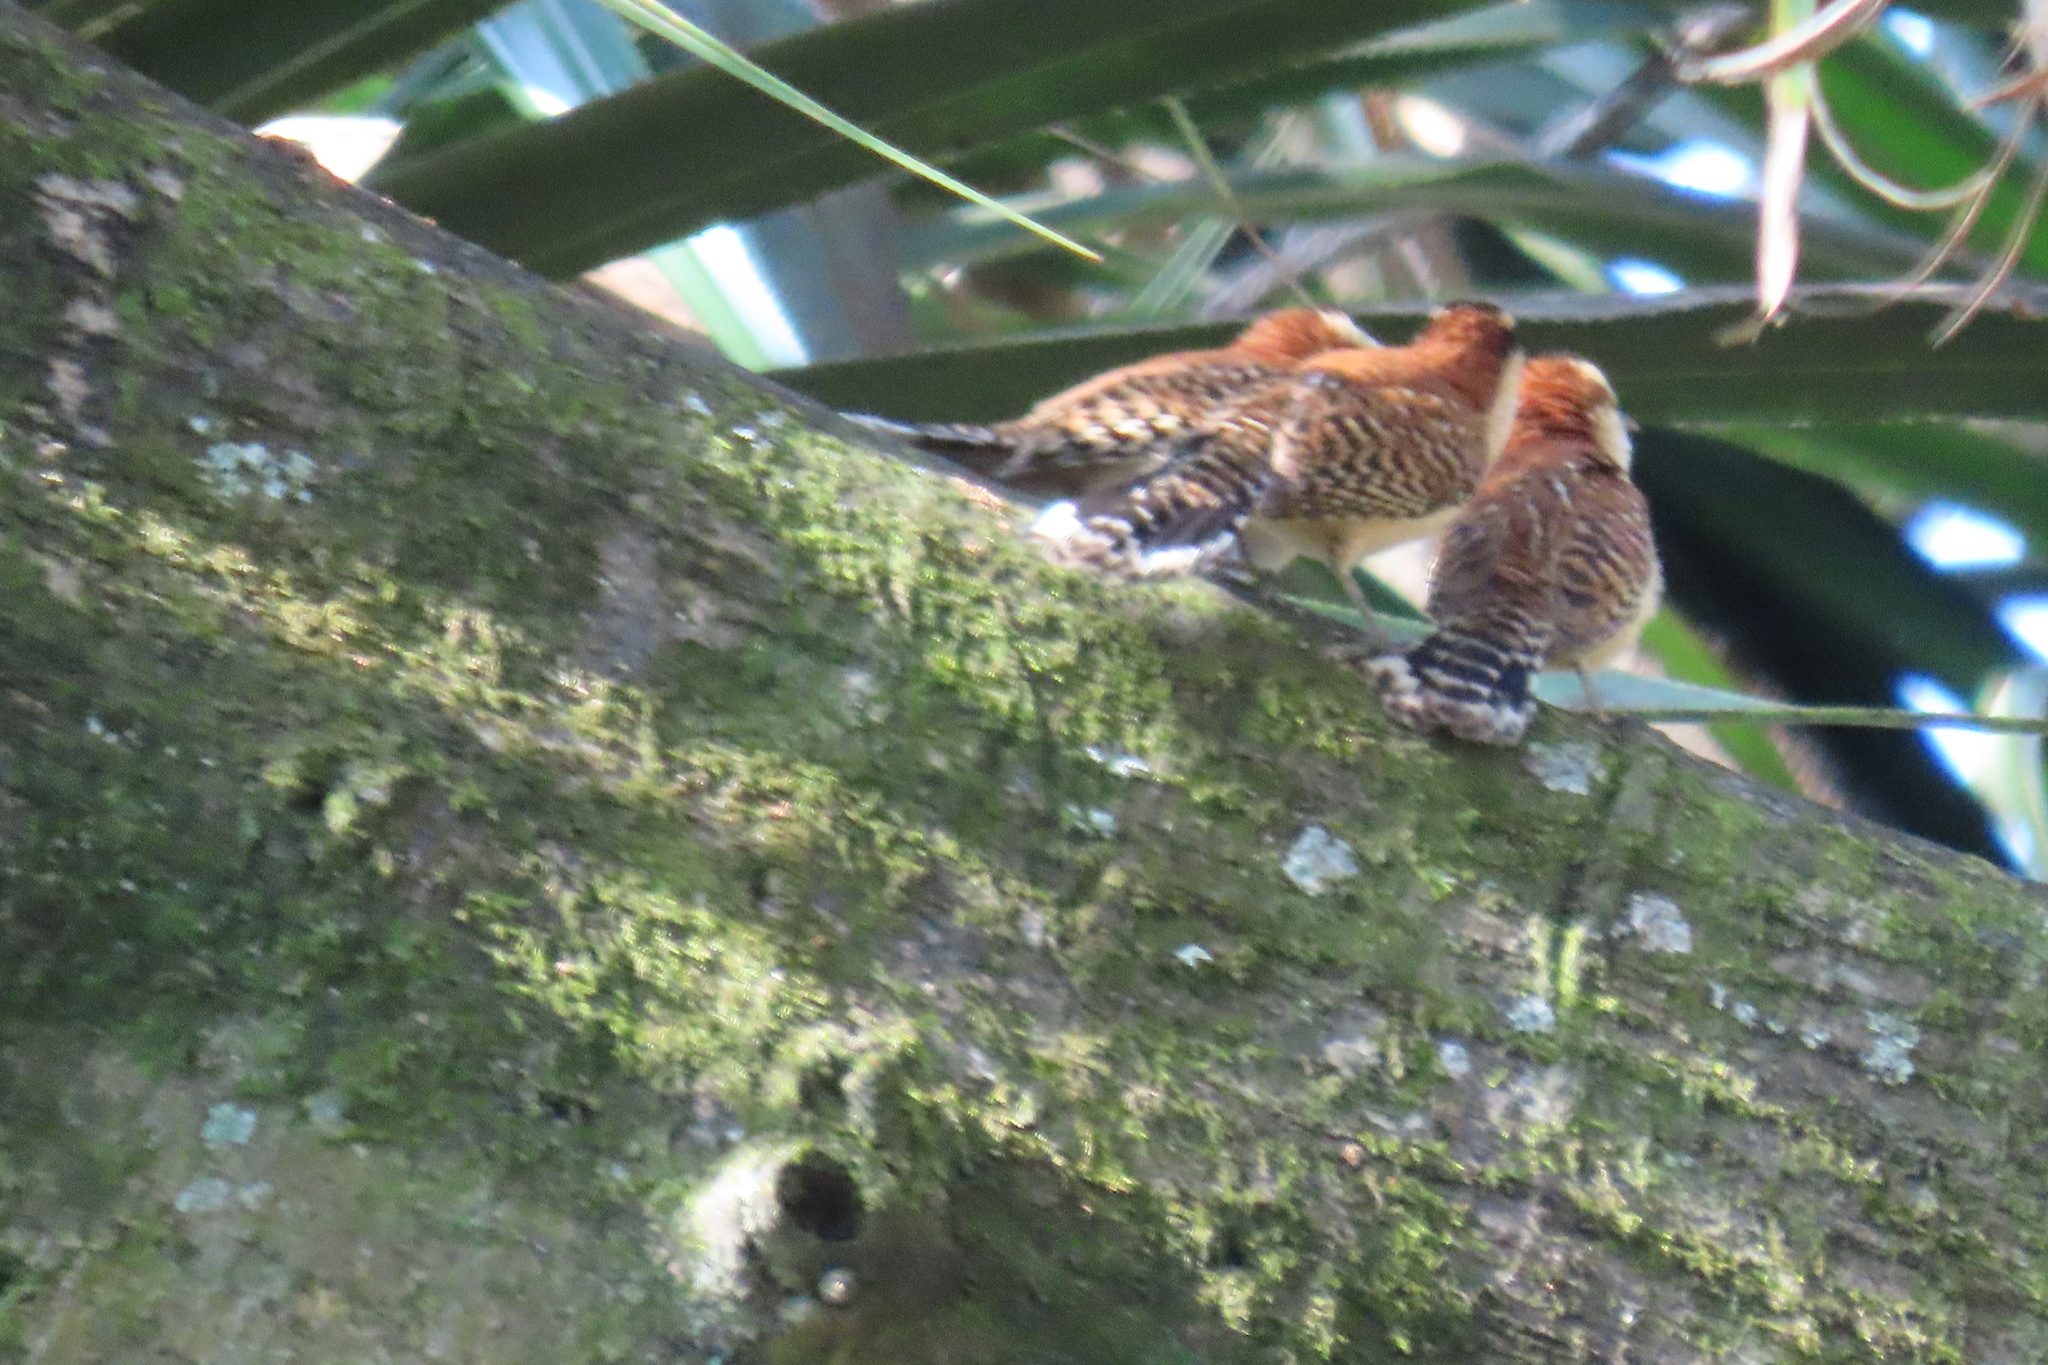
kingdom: Animalia
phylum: Chordata
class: Aves
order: Passeriformes
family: Troglodytidae
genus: Campylorhynchus
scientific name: Campylorhynchus rufinucha
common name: Rufous-naped wren
